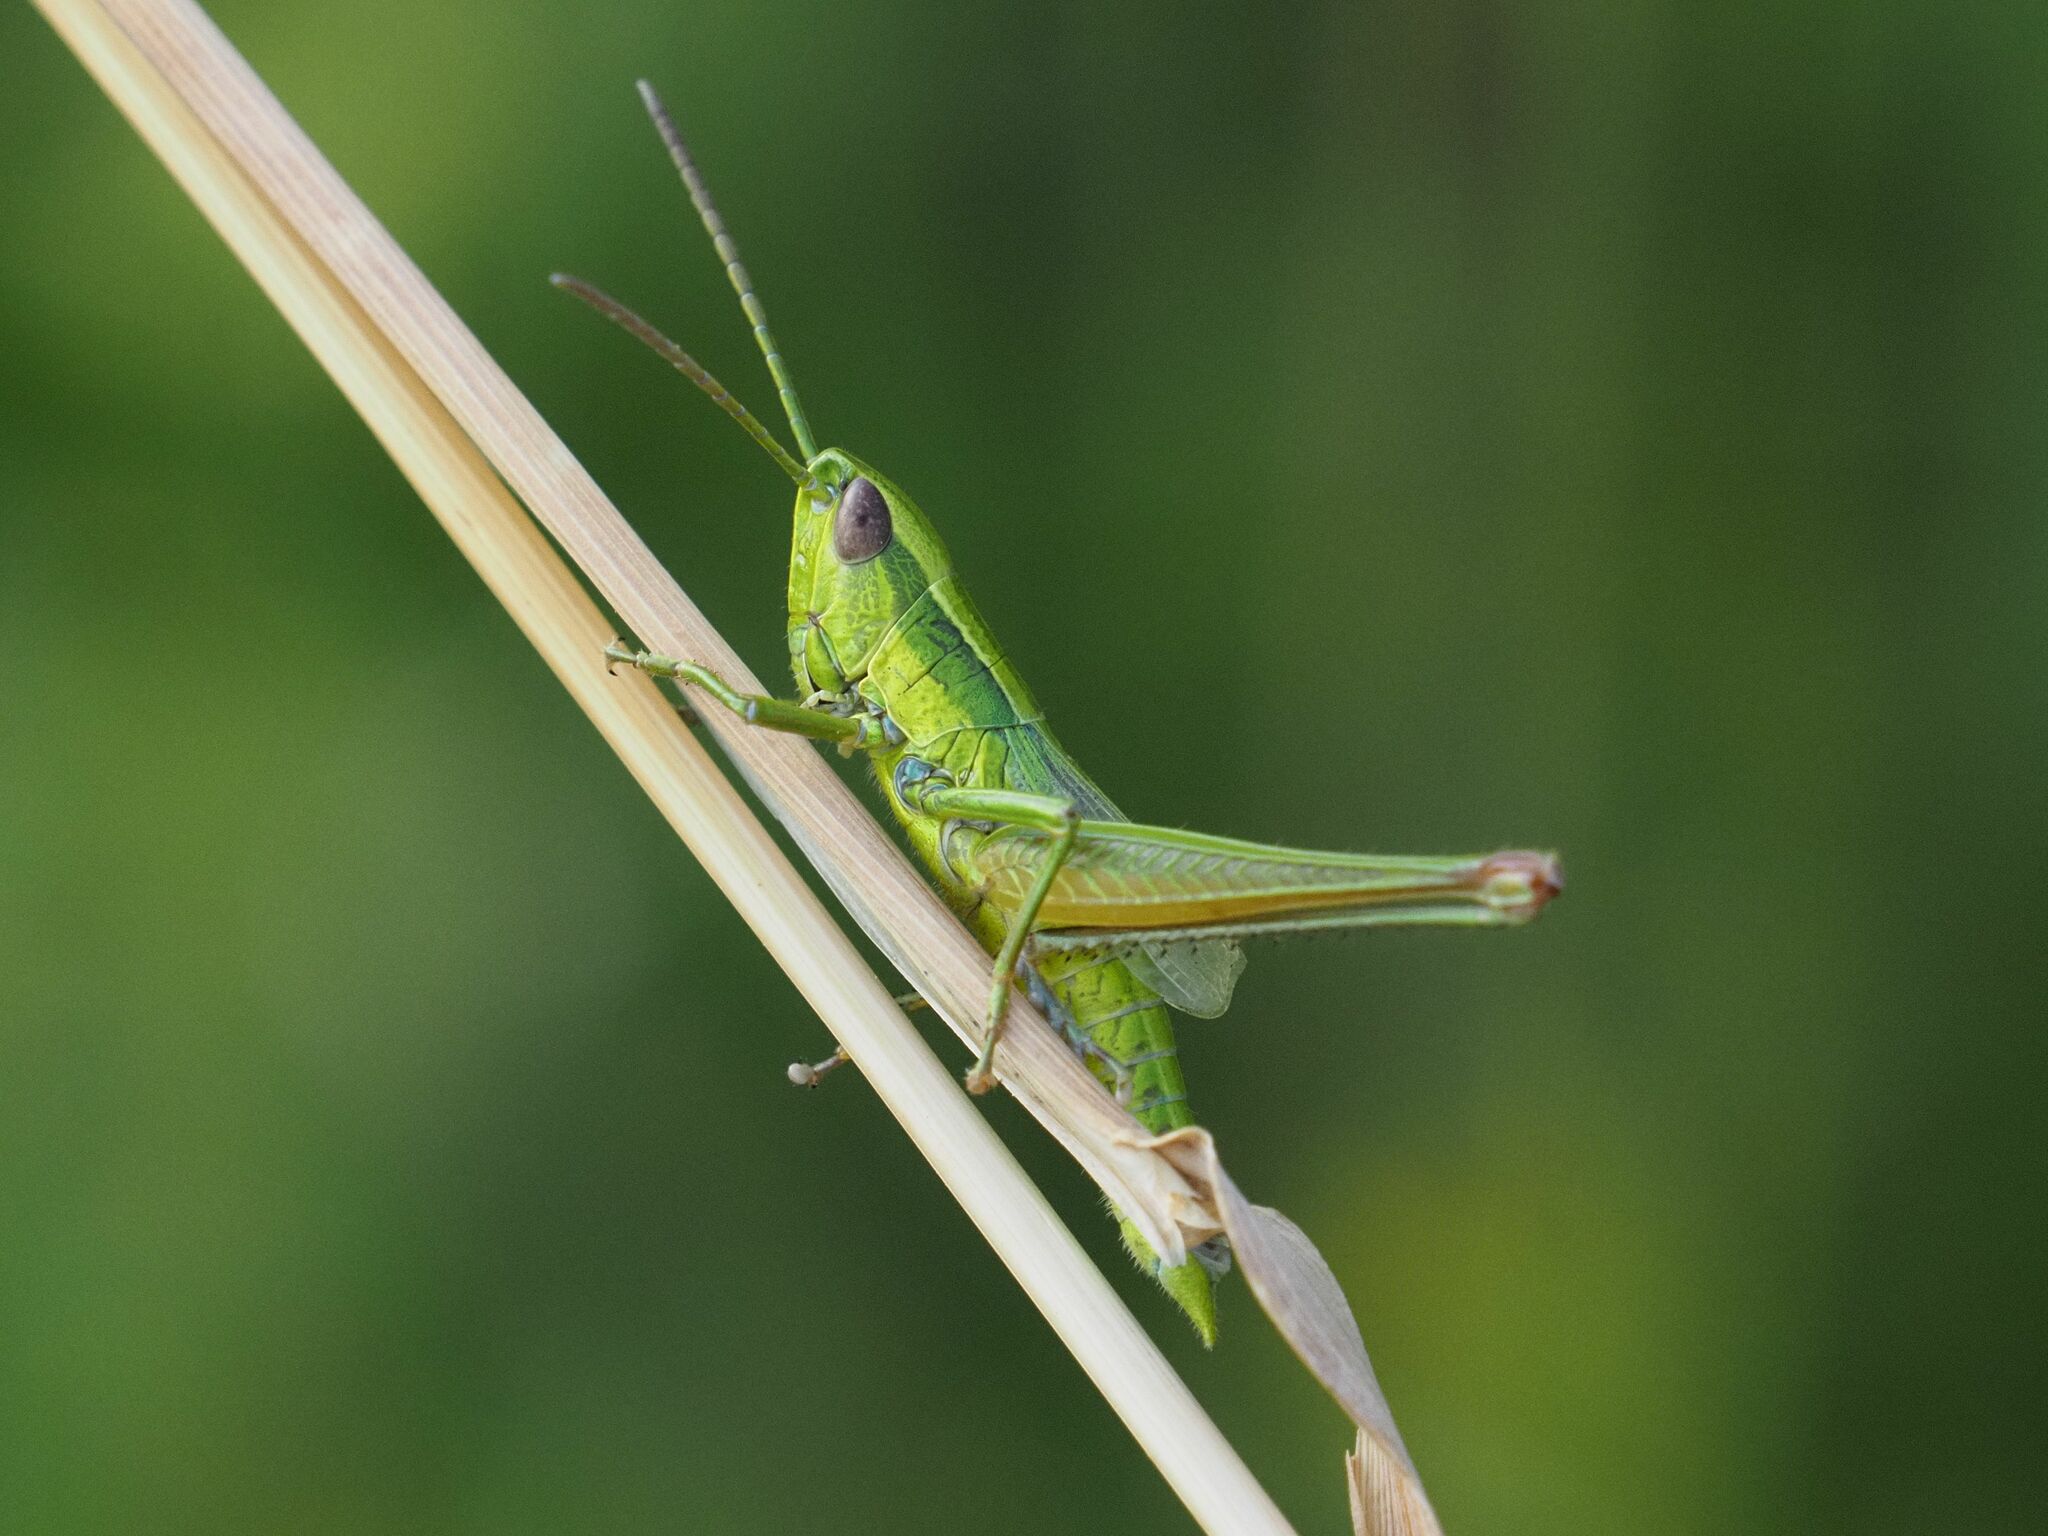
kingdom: Animalia
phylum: Arthropoda
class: Insecta
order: Orthoptera
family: Acrididae
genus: Euthystira
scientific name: Euthystira brachyptera
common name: Small gold grasshopper
